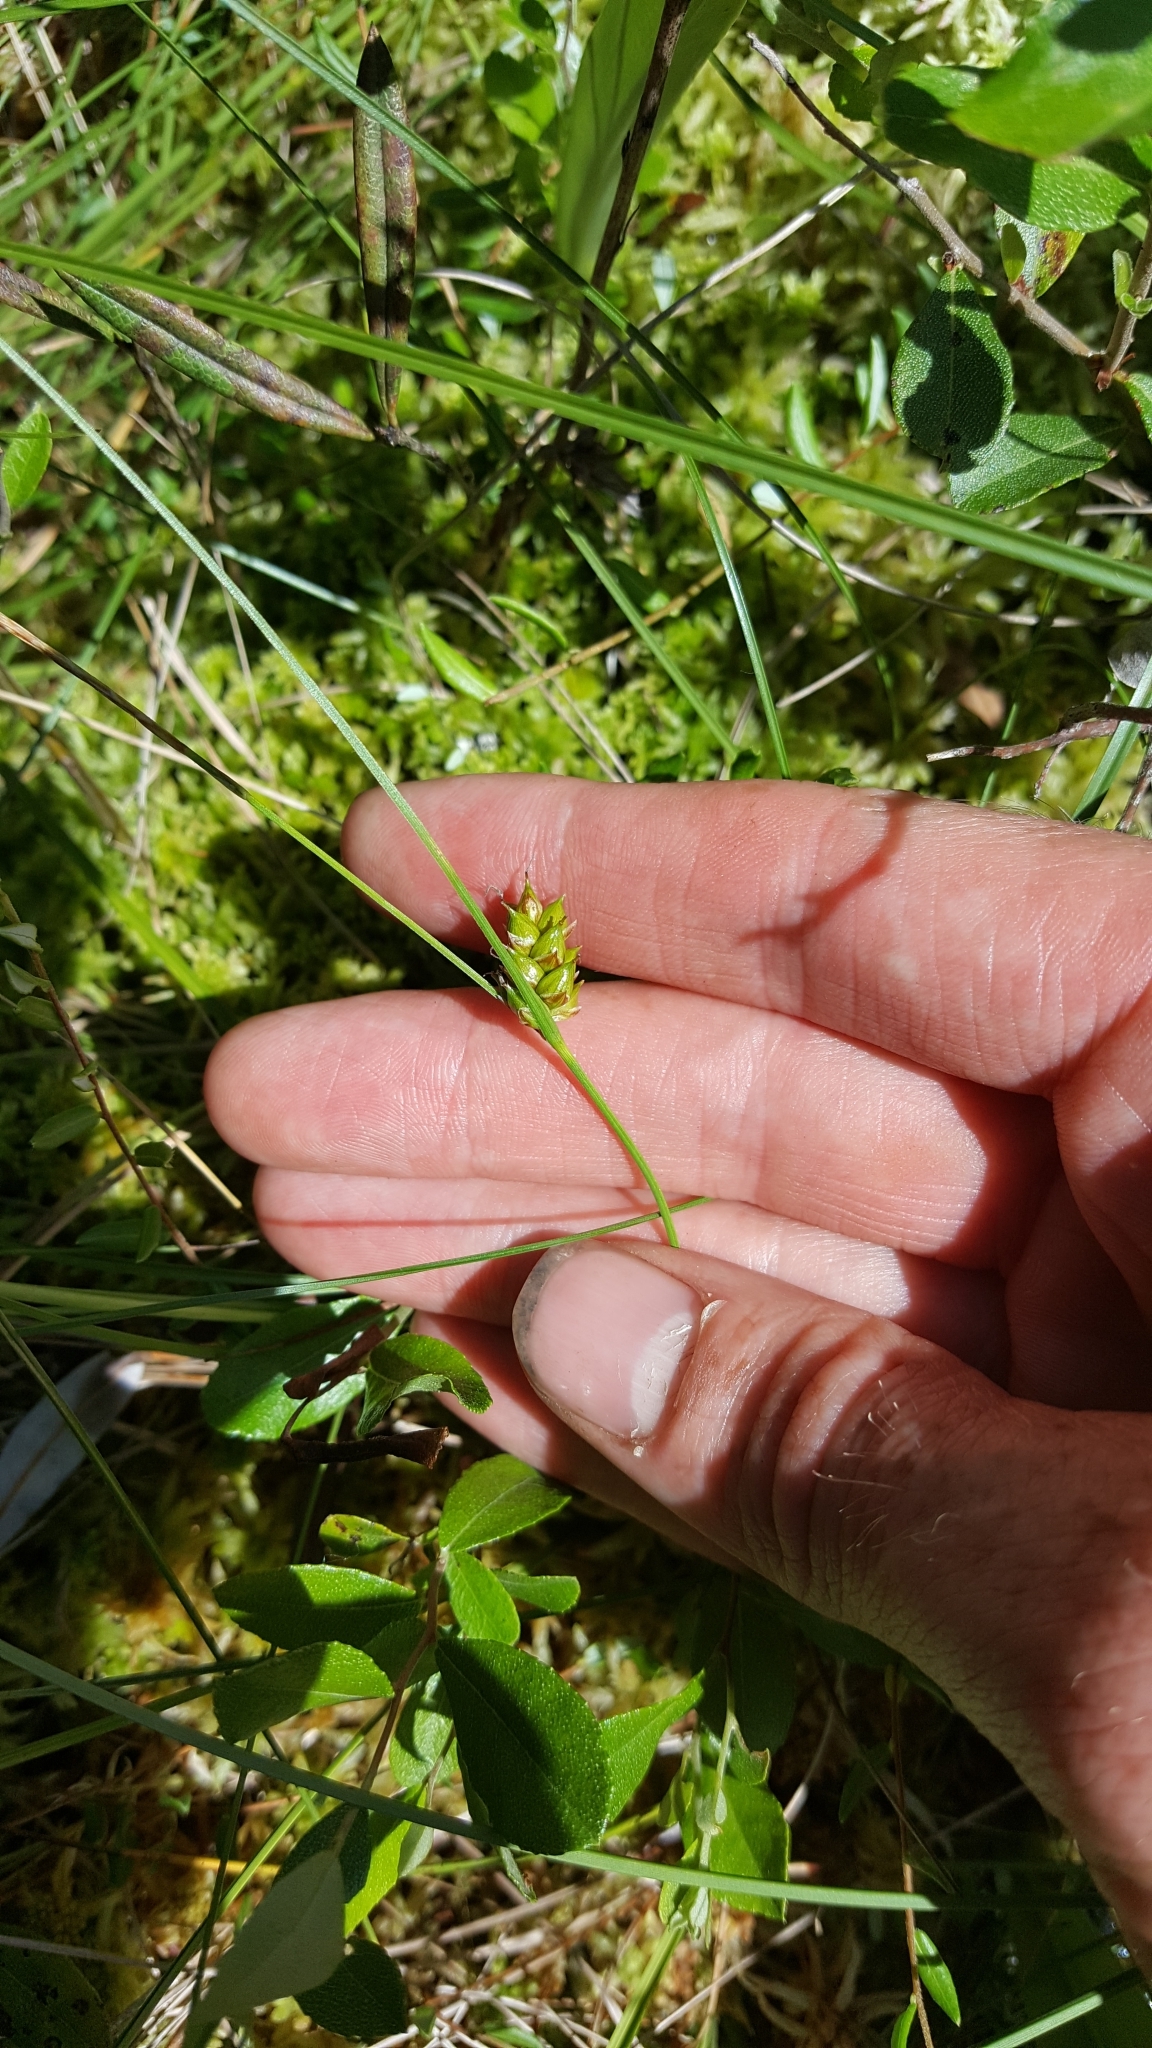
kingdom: Plantae
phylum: Tracheophyta
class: Liliopsida
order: Poales
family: Cyperaceae
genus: Carex
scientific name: Carex oligosperma
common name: Few-seed sedge
